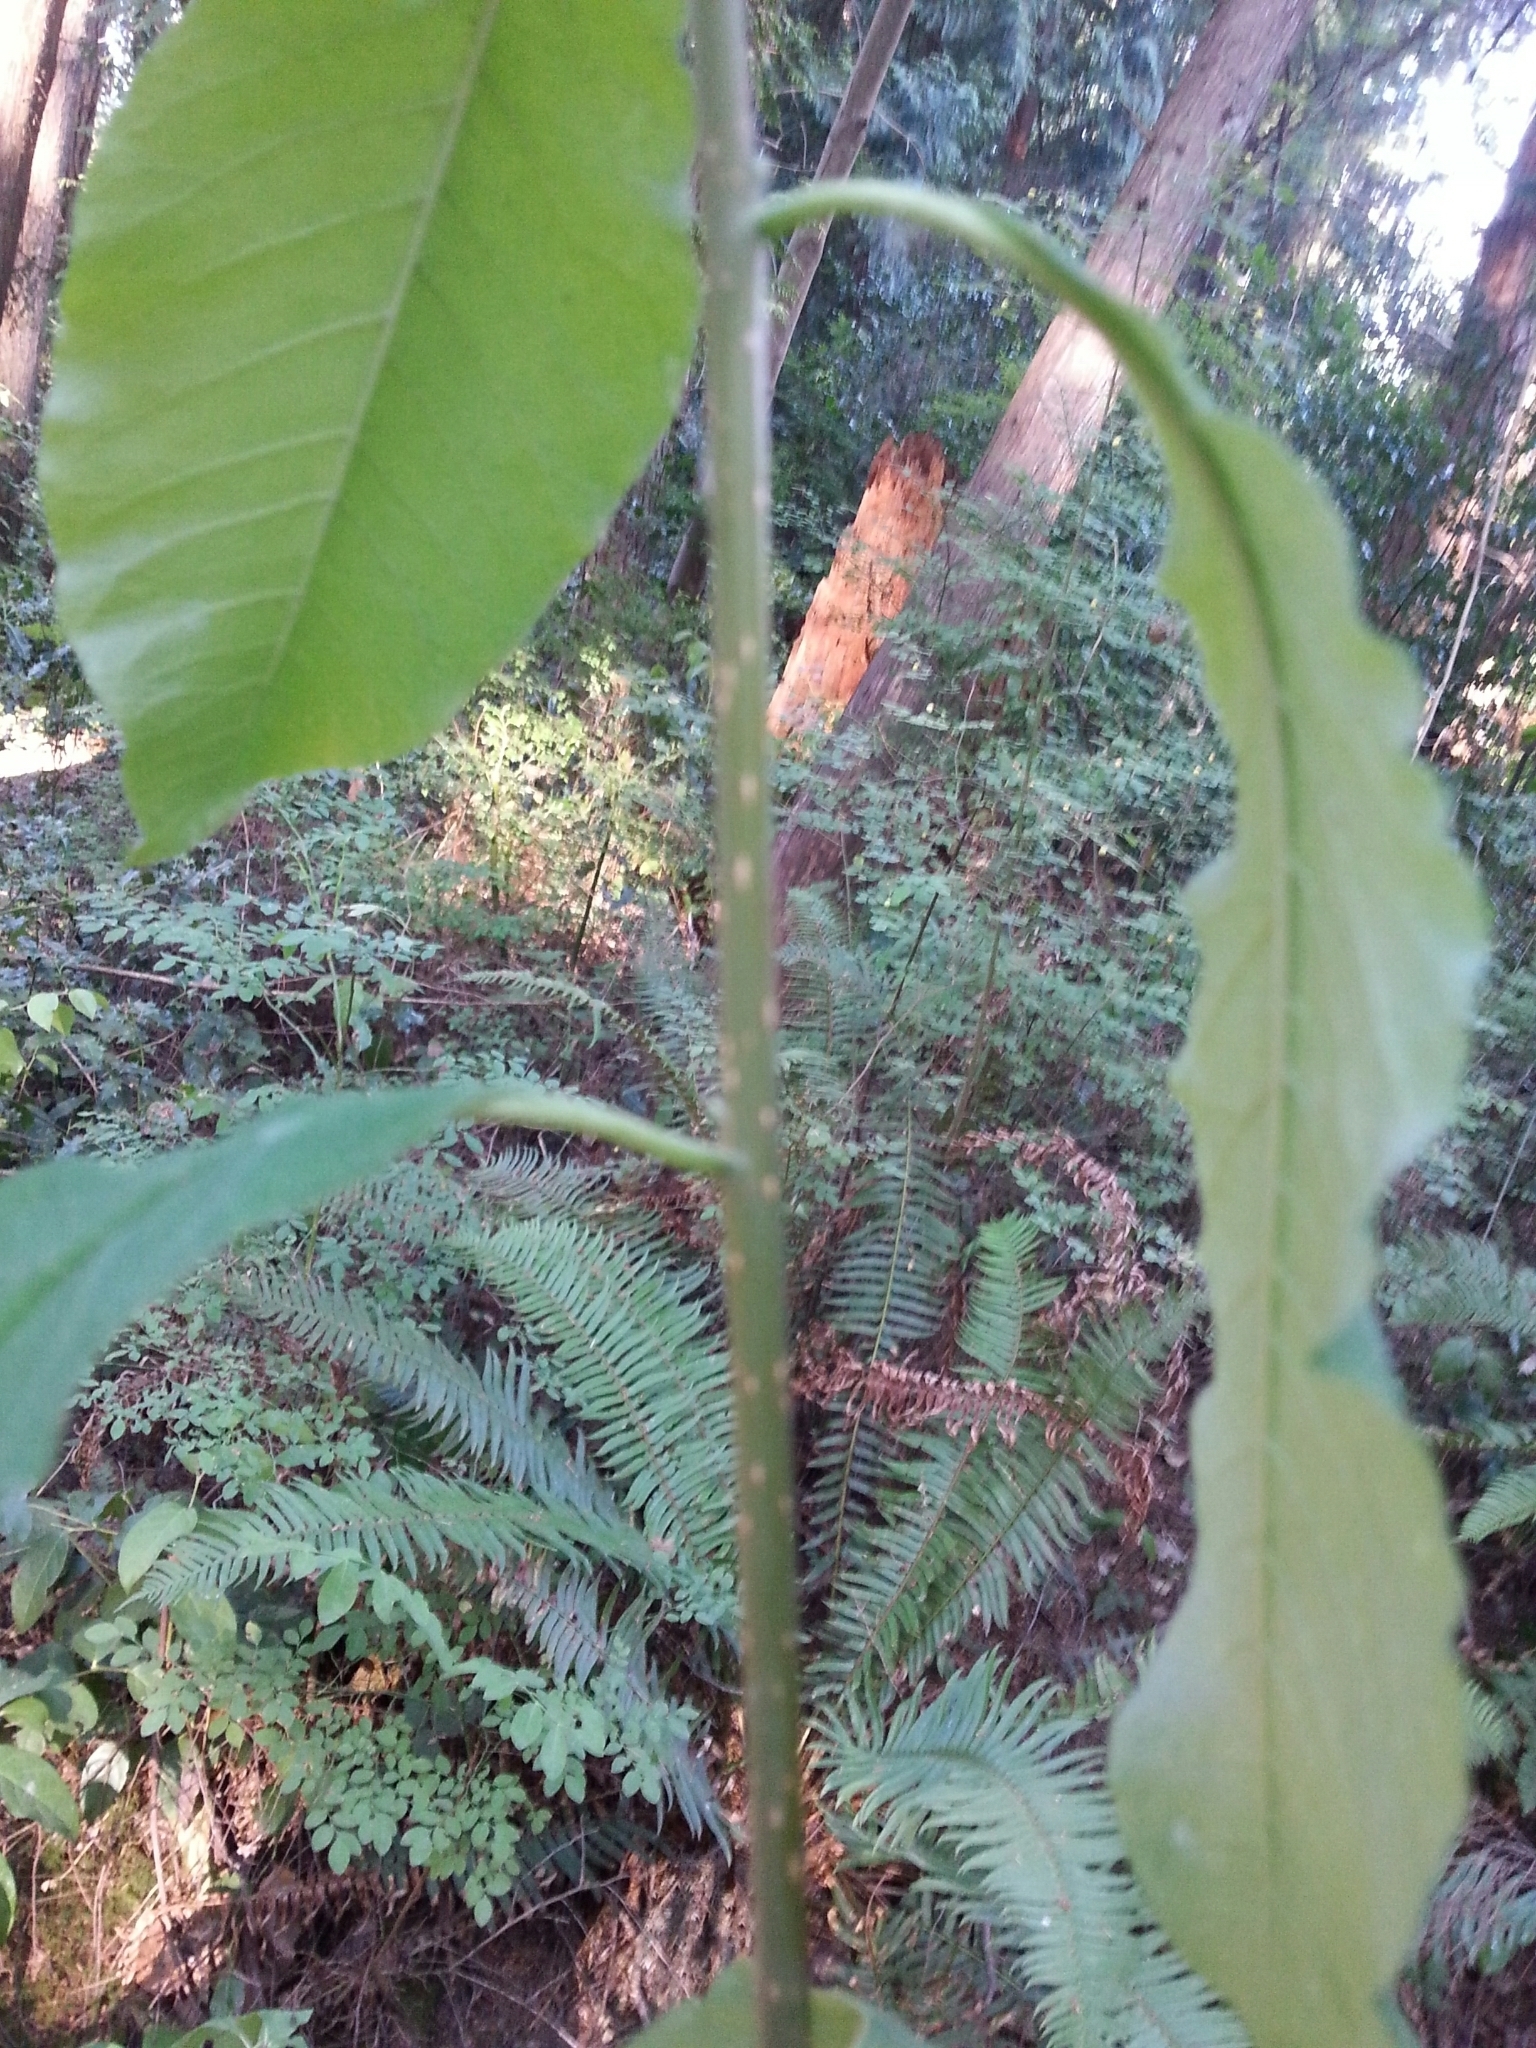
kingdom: Plantae
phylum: Tracheophyta
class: Magnoliopsida
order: Rosales
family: Rosaceae
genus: Oemleria
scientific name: Oemleria cerasiformis
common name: Osoberry
